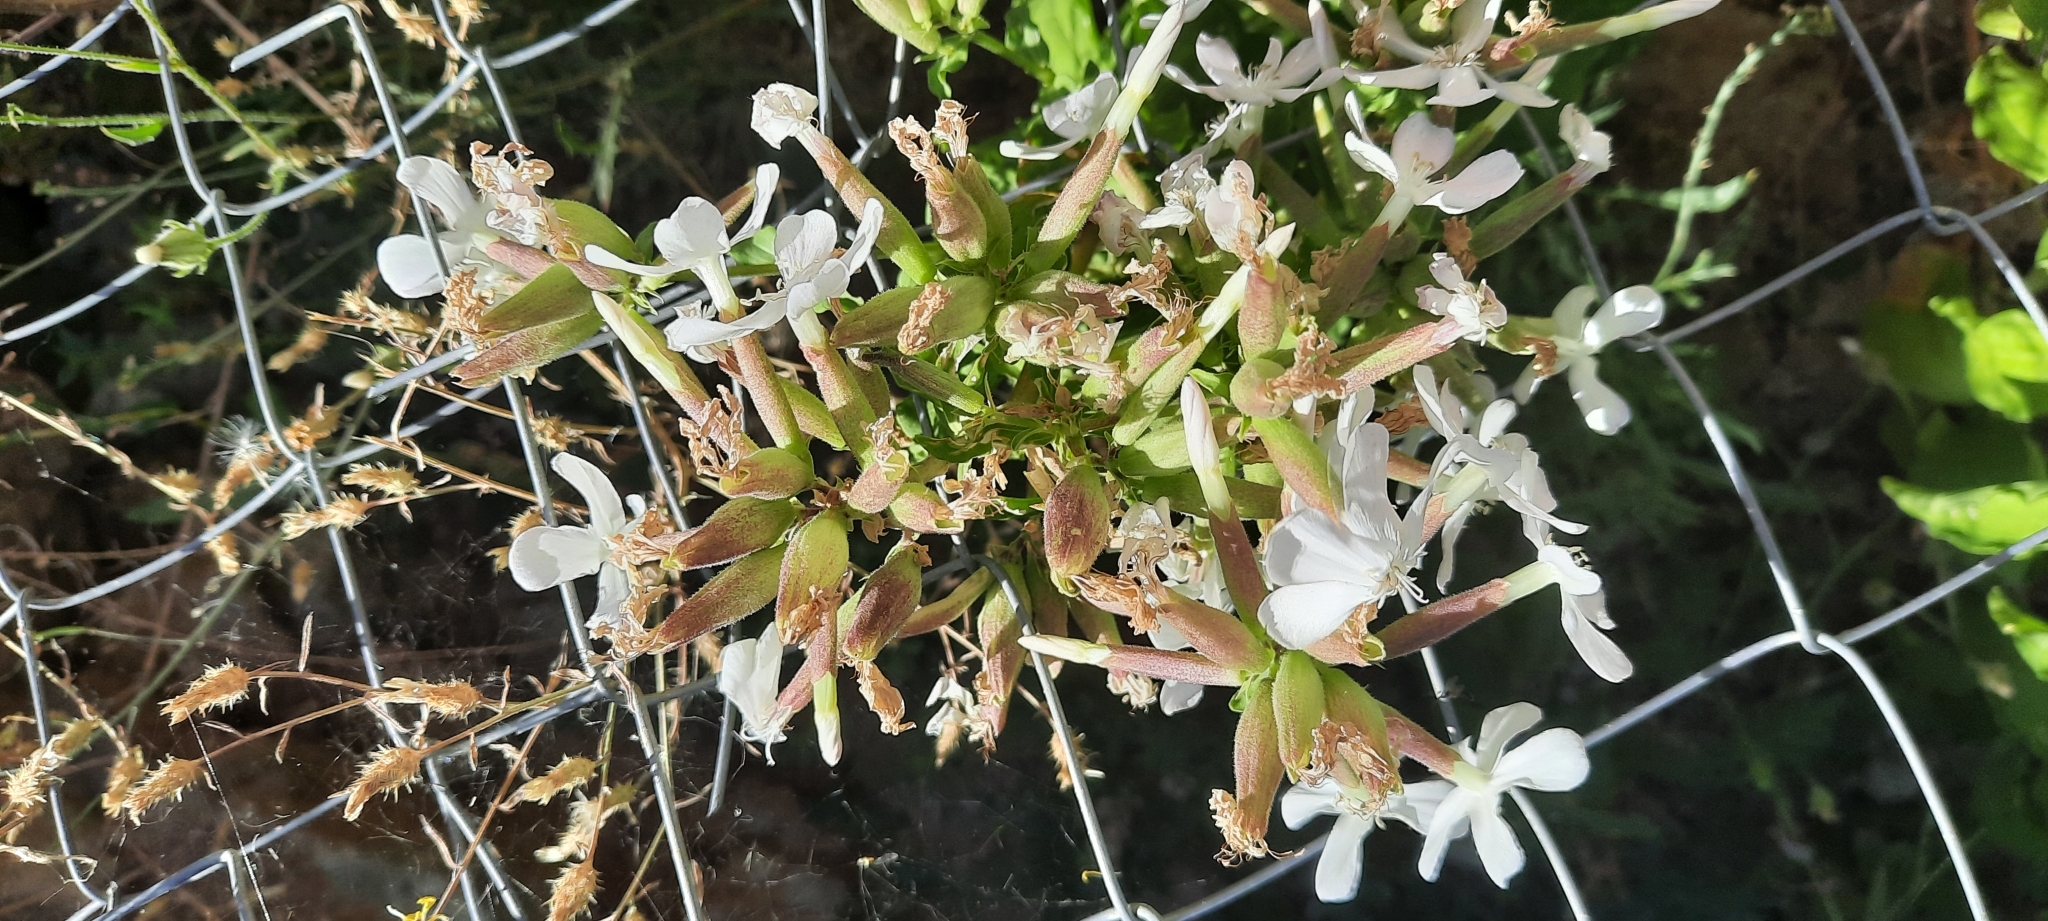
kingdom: Plantae
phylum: Tracheophyta
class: Magnoliopsida
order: Caryophyllales
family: Caryophyllaceae
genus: Saponaria
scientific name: Saponaria officinalis
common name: Soapwort
